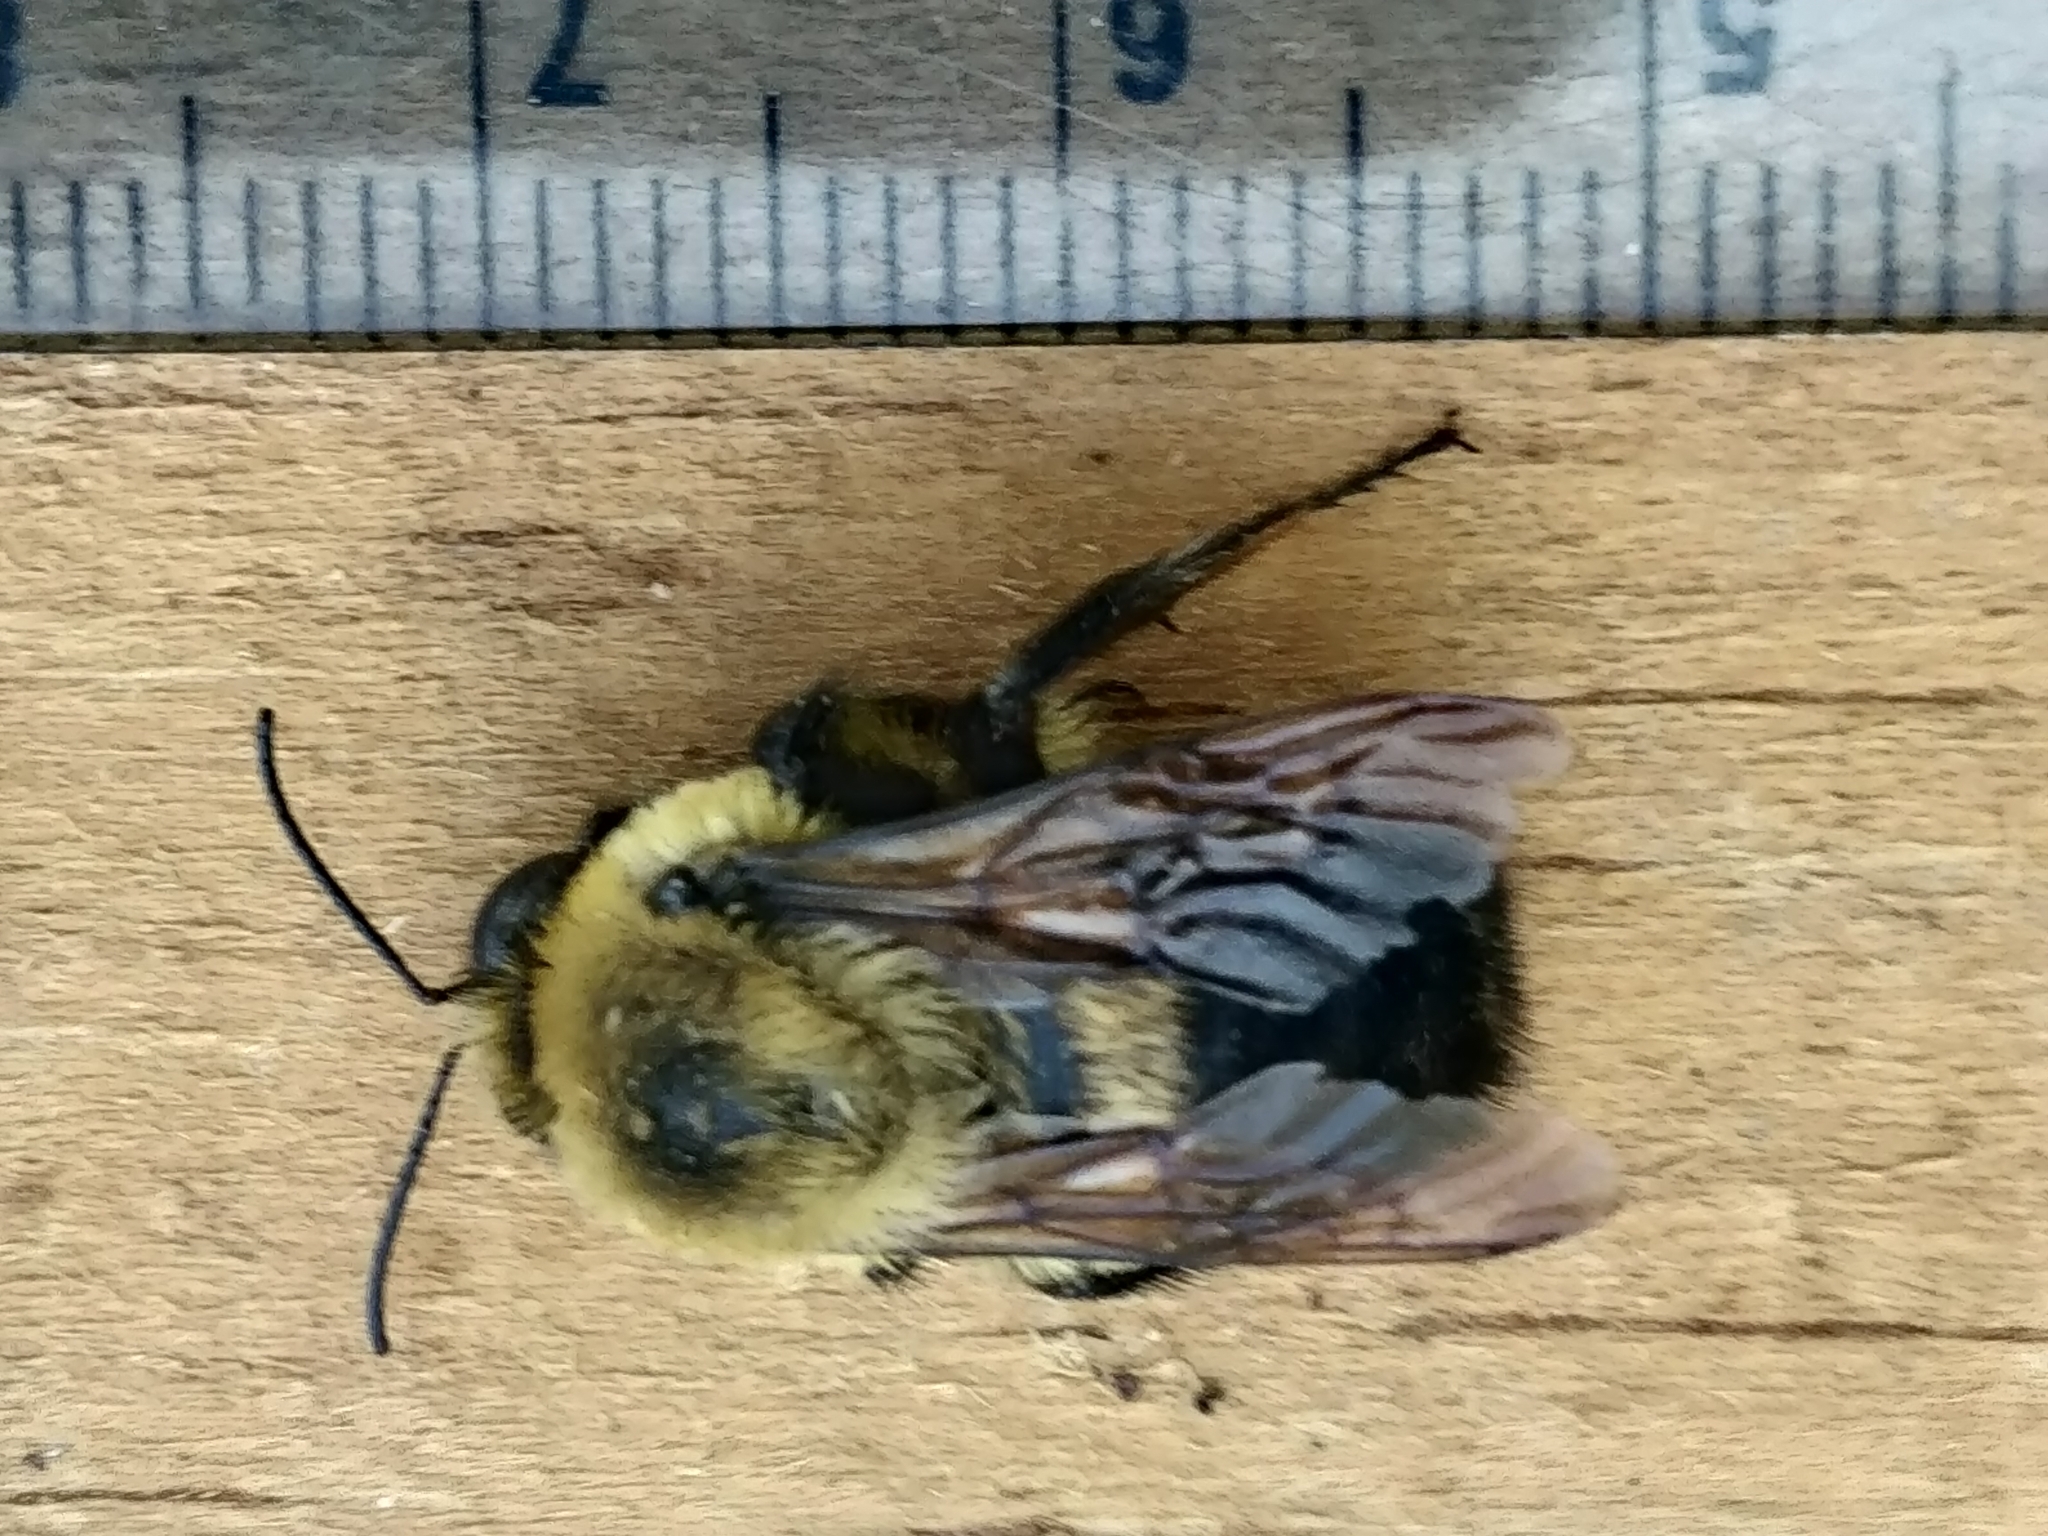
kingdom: Animalia
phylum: Arthropoda
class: Insecta
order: Hymenoptera
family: Apidae
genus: Bombus
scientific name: Bombus griseocollis
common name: Brown-belted bumble bee
